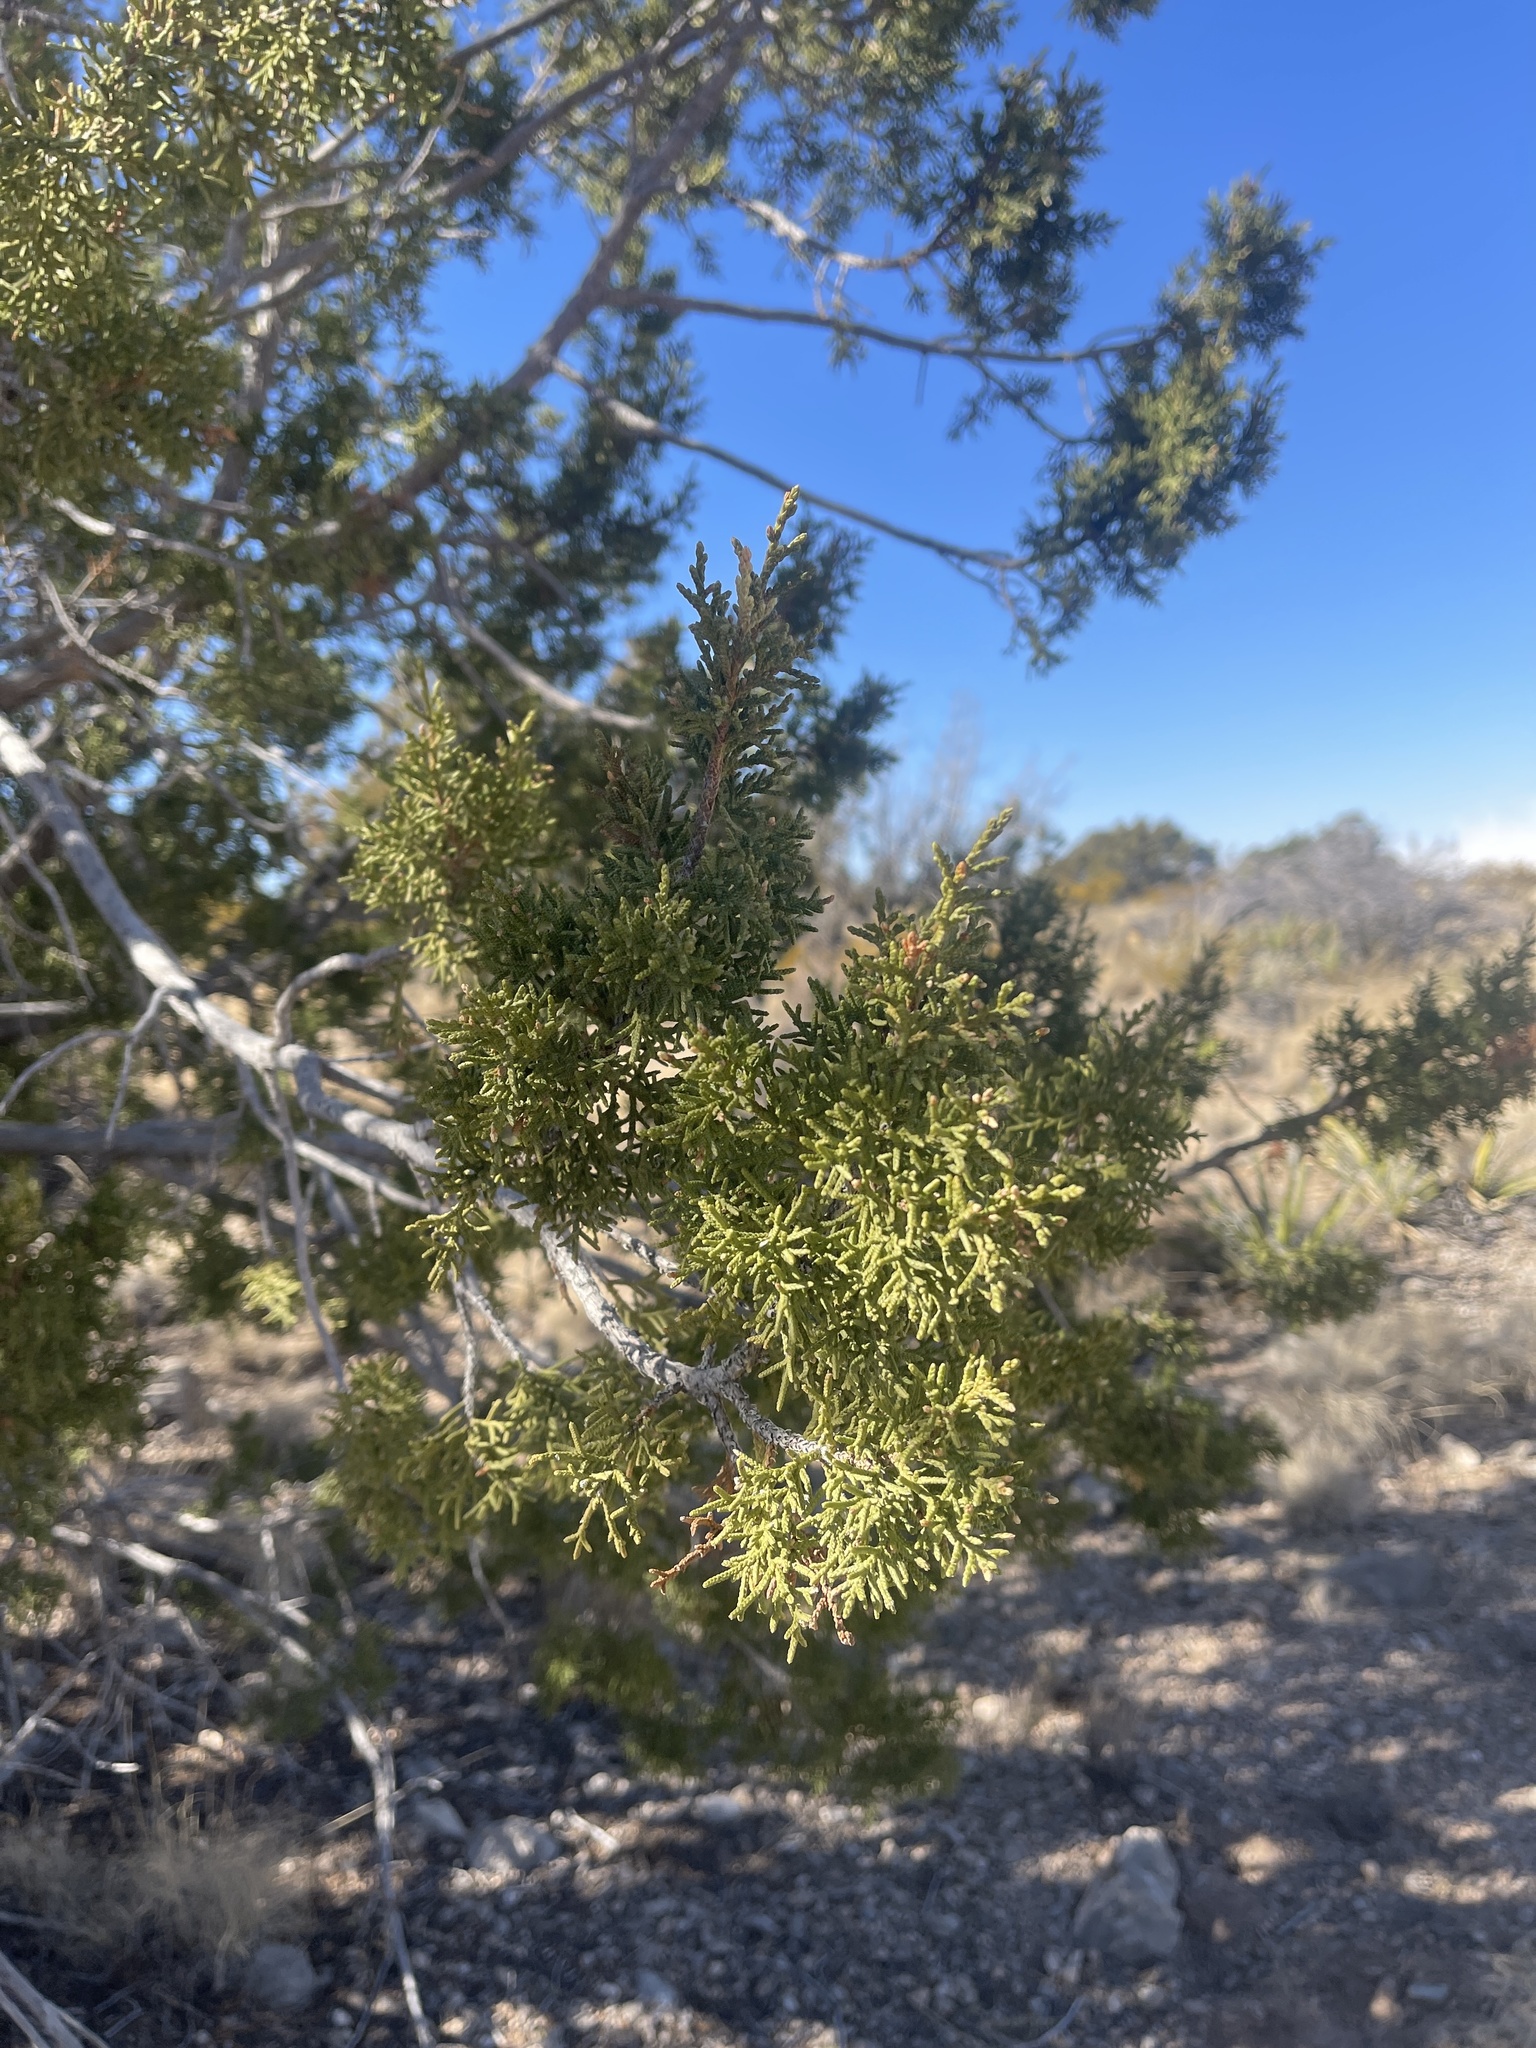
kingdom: Plantae
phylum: Tracheophyta
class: Pinopsida
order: Pinales
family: Cupressaceae
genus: Juniperus
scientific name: Juniperus monosperma
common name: One-seed juniper
